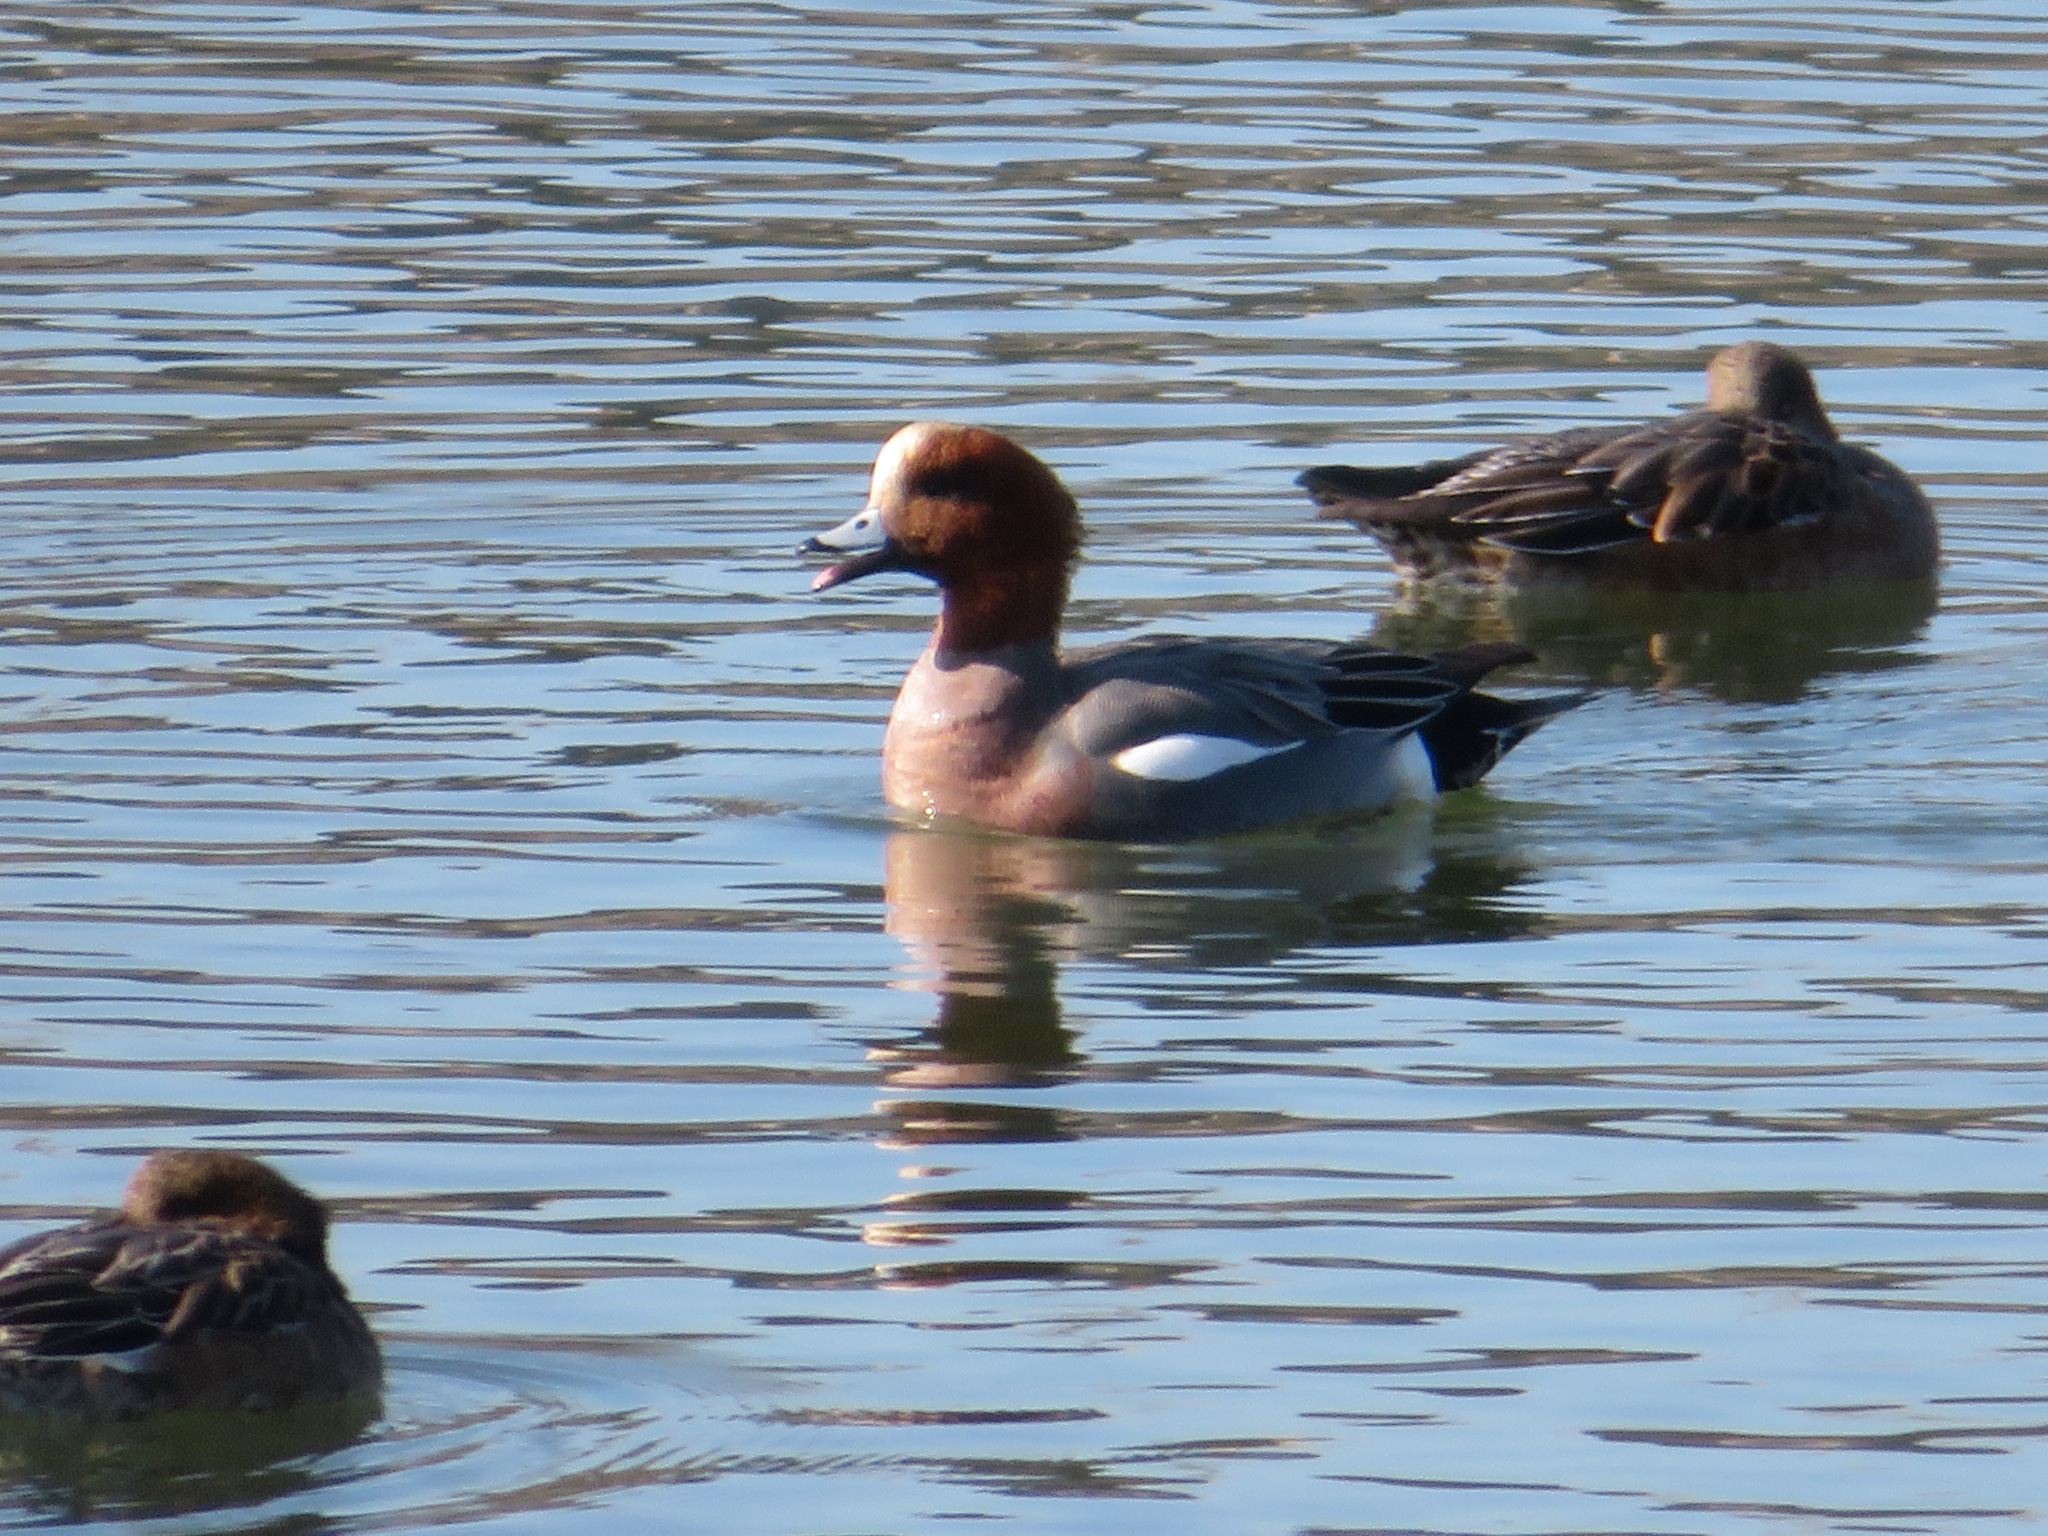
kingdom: Animalia
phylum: Chordata
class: Aves
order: Anseriformes
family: Anatidae
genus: Mareca
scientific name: Mareca penelope
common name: Eurasian wigeon
